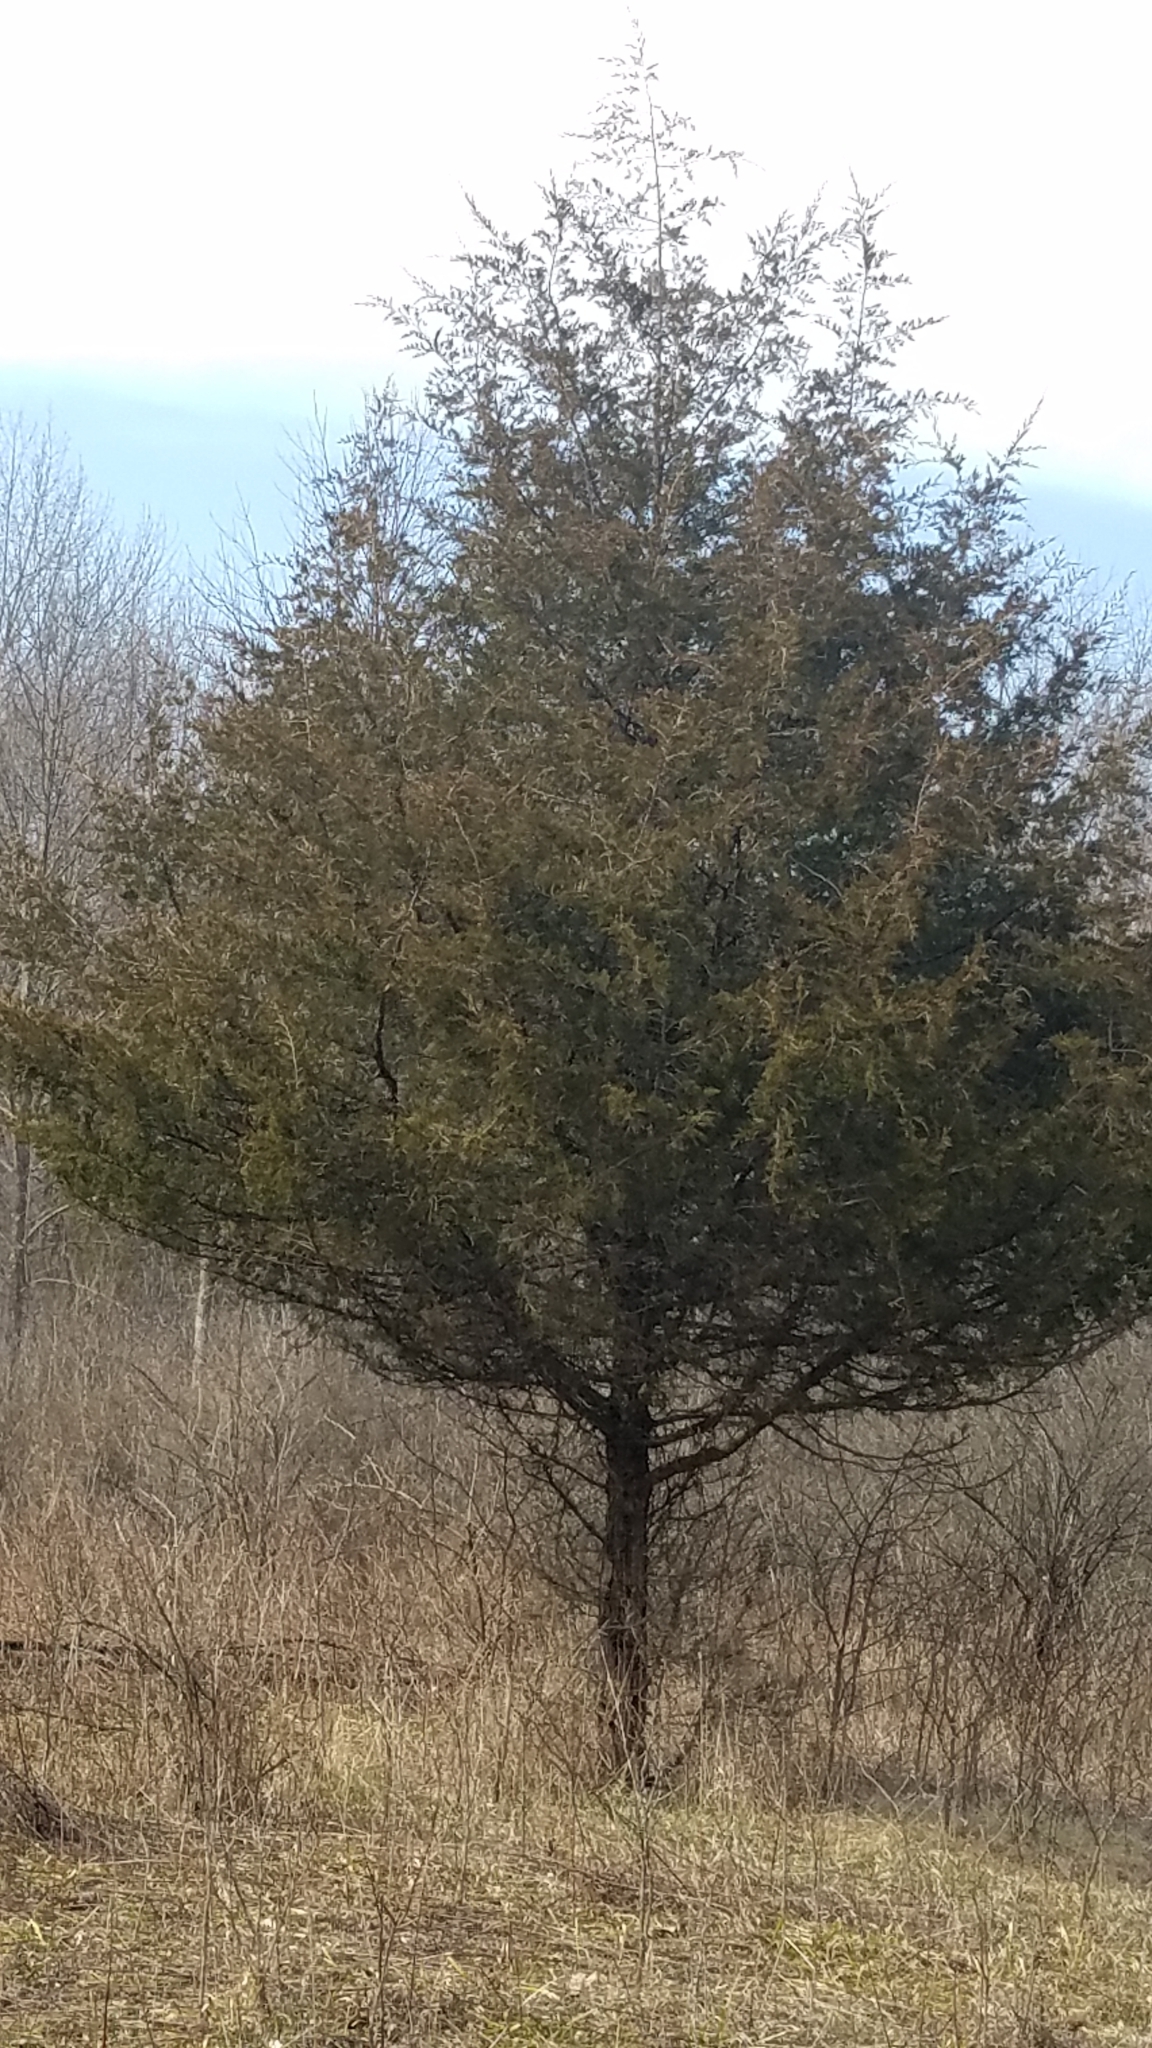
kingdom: Plantae
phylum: Tracheophyta
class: Pinopsida
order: Pinales
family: Cupressaceae
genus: Juniperus
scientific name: Juniperus virginiana
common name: Red juniper
